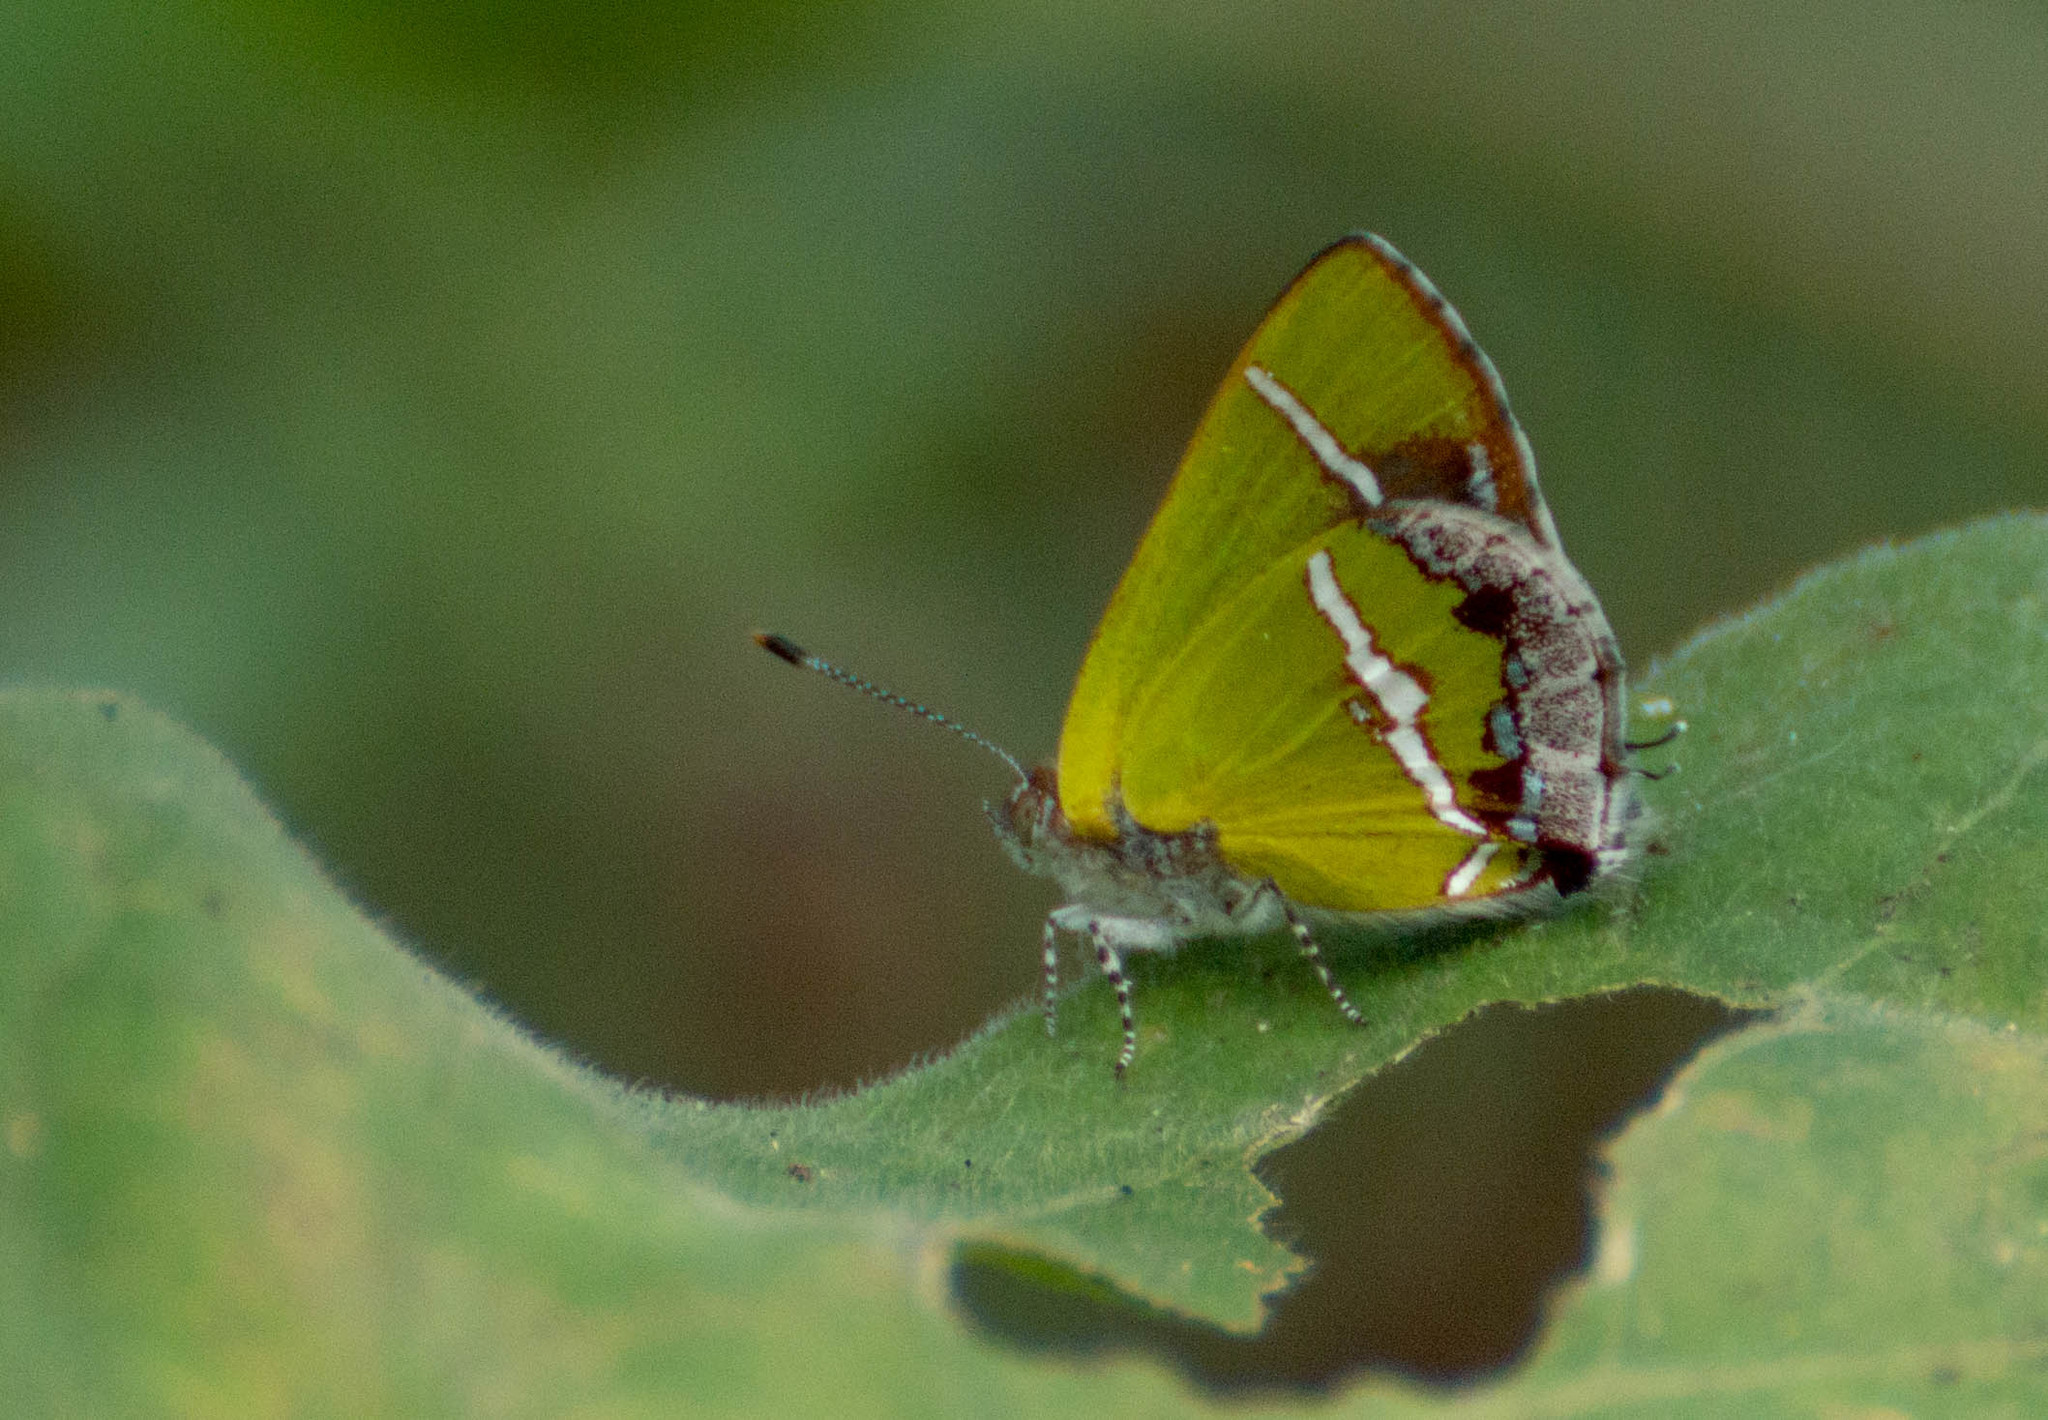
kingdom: Animalia
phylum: Arthropoda
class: Insecta
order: Lepidoptera
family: Lycaenidae
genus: Chlorostrymon
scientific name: Chlorostrymon simaethis
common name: Silver-banded hairstreak
